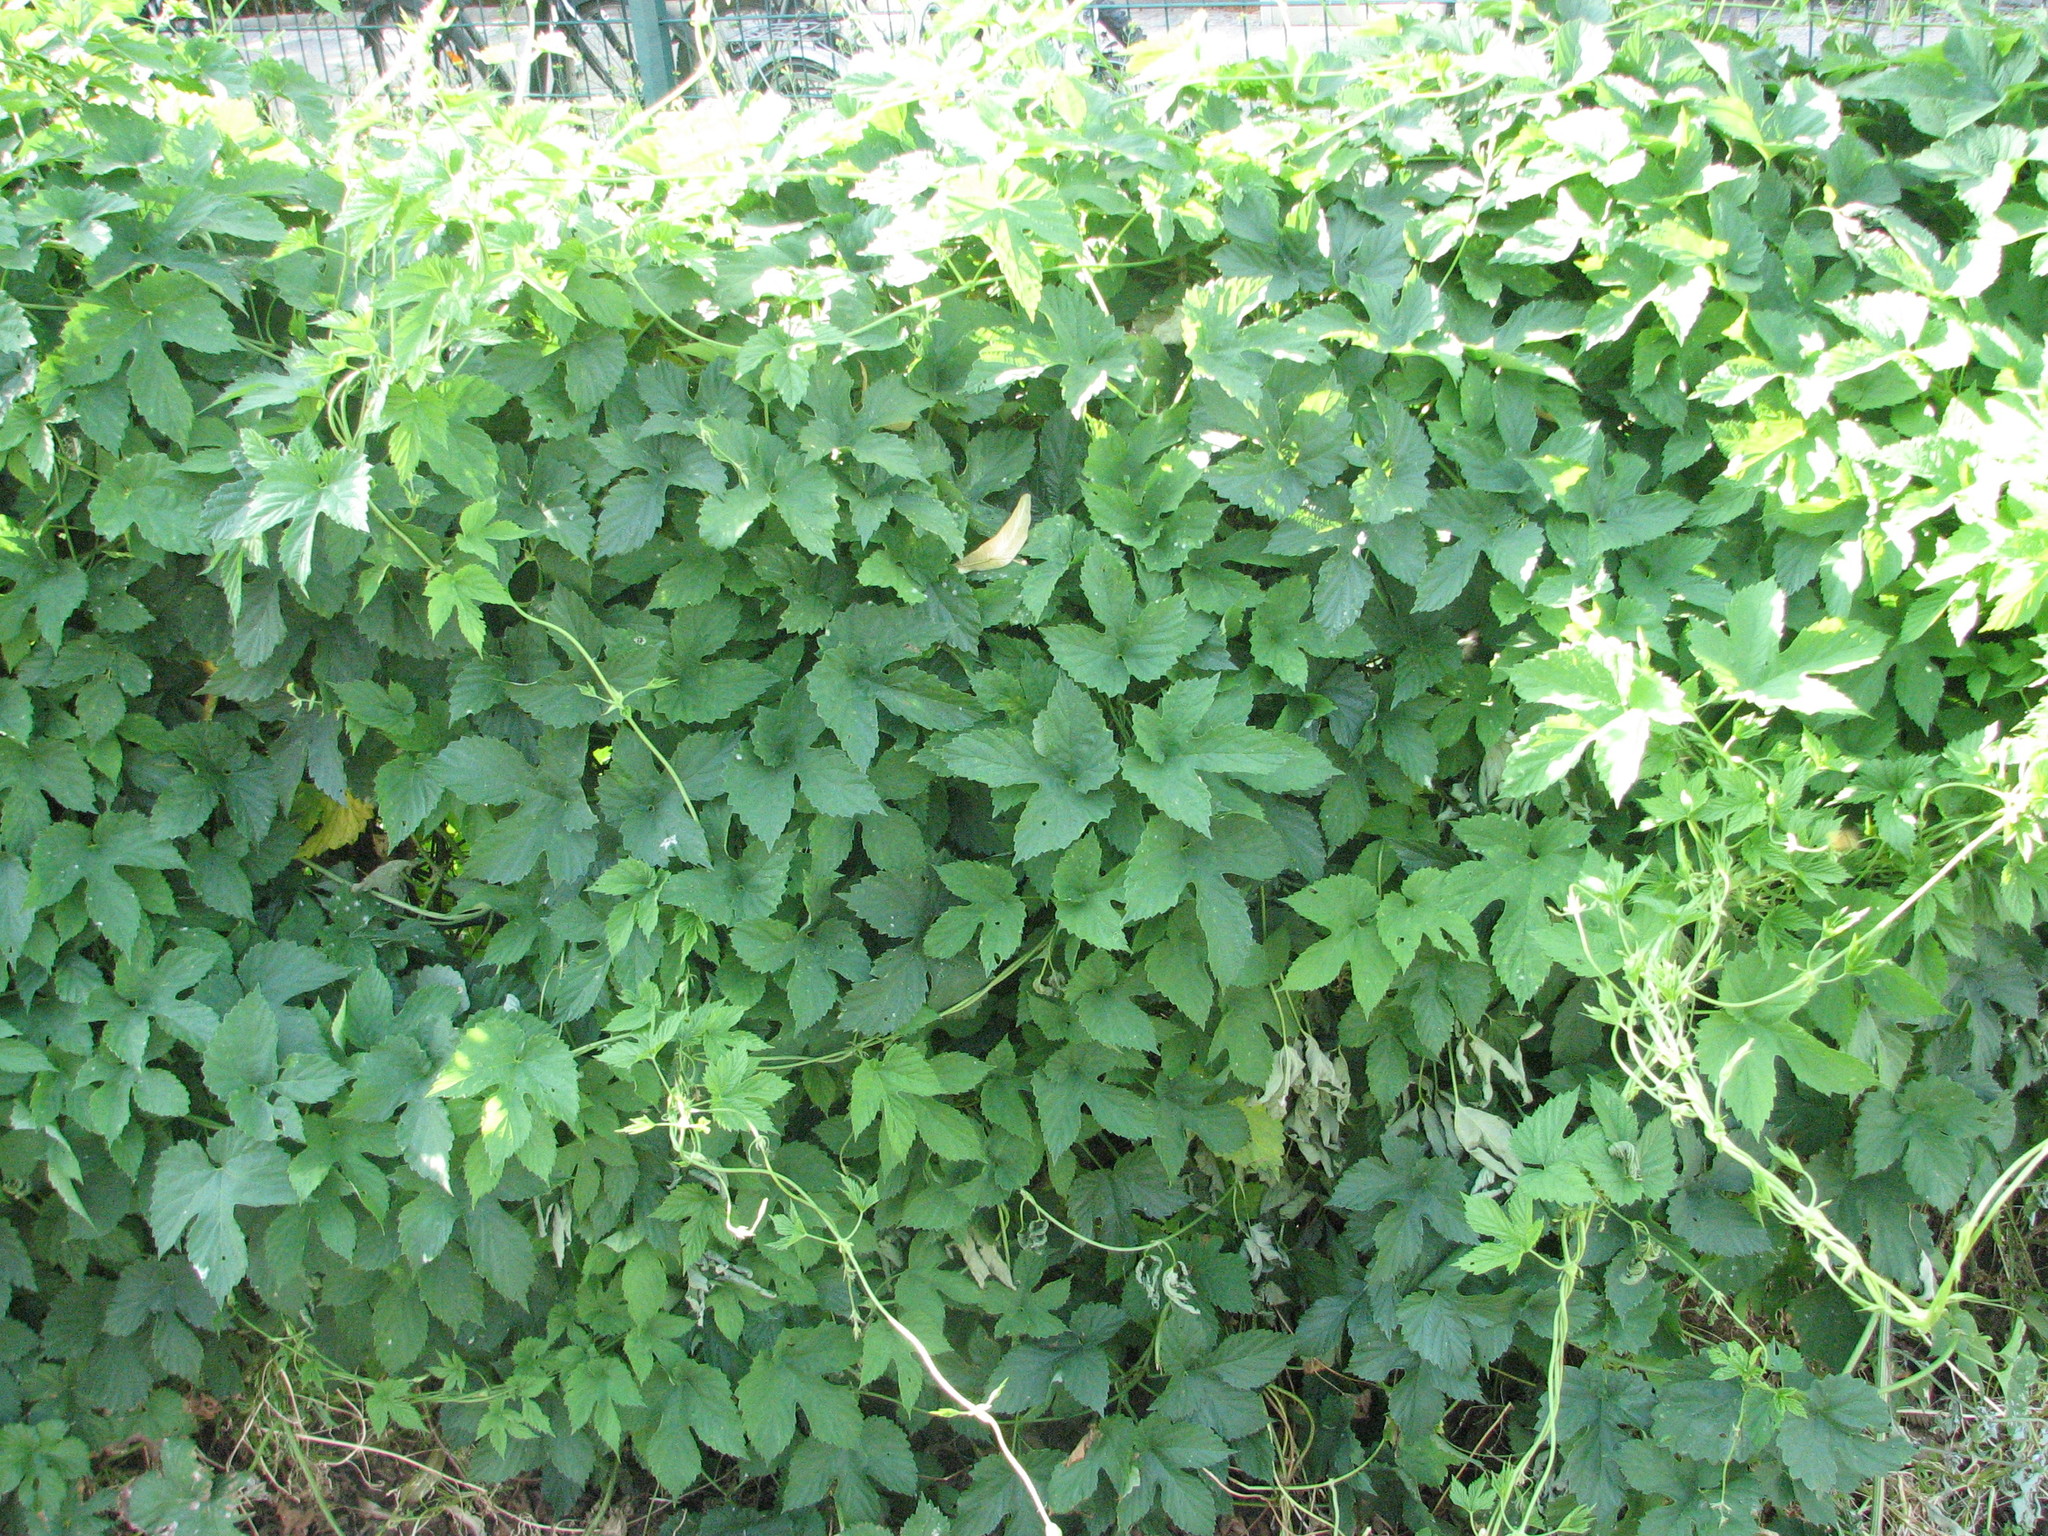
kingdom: Plantae
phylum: Tracheophyta
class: Magnoliopsida
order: Rosales
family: Cannabaceae
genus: Humulus
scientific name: Humulus lupulus
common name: Hop
